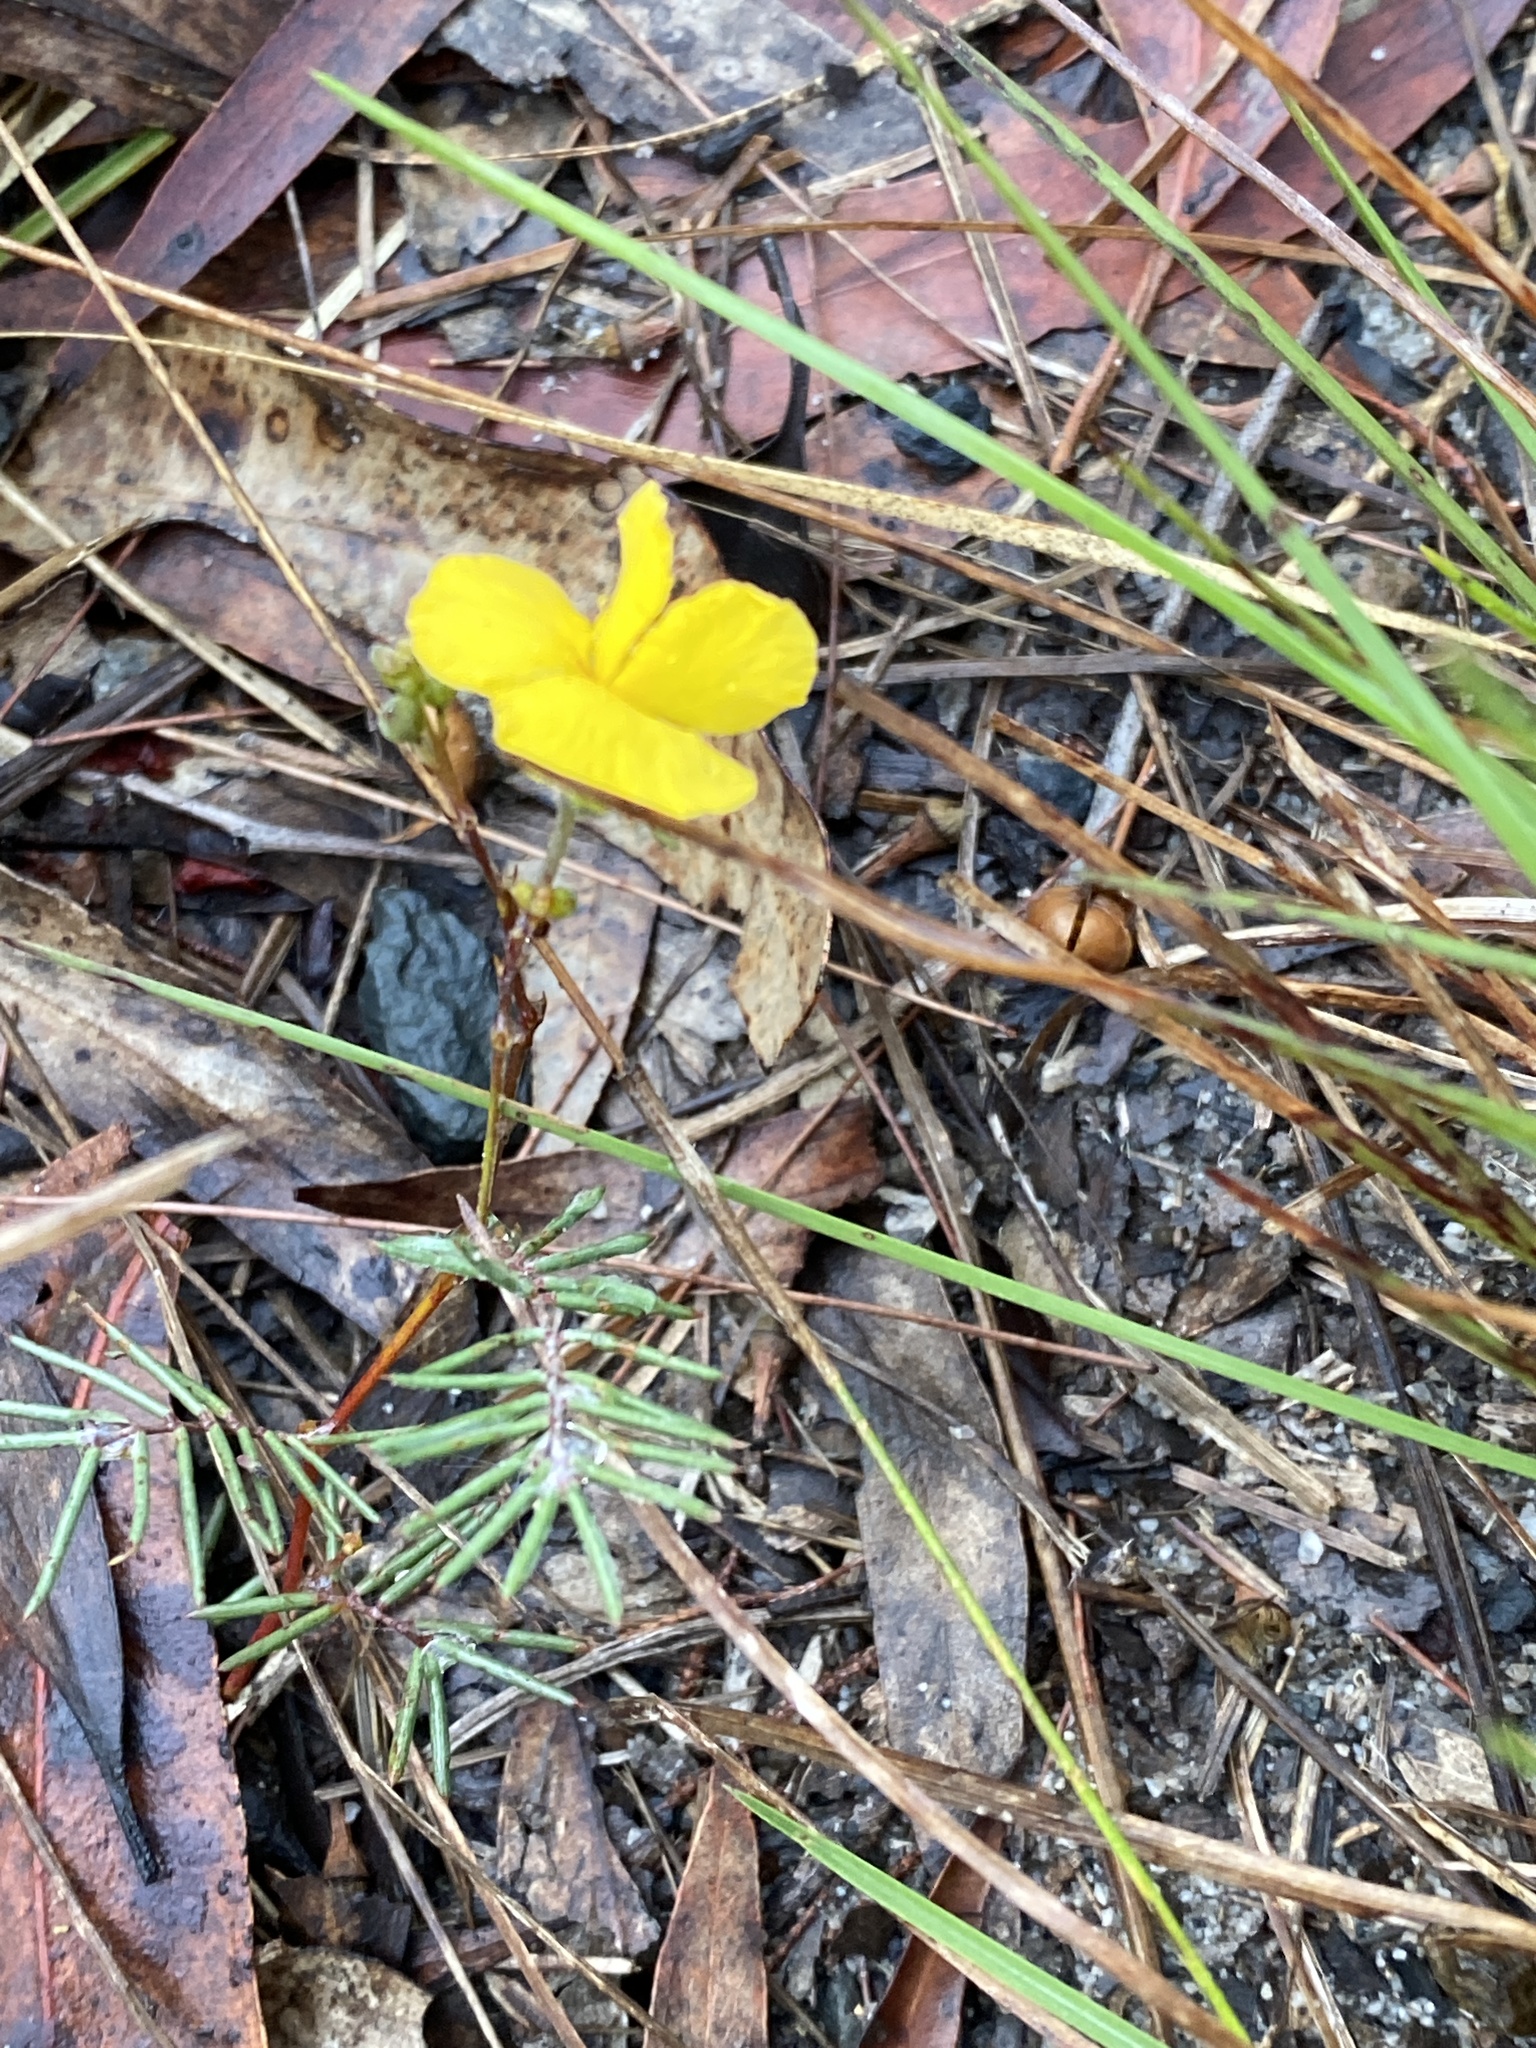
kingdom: Plantae
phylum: Tracheophyta
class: Magnoliopsida
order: Fabales
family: Fabaceae
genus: Gompholobium
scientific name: Gompholobium pinnatum
